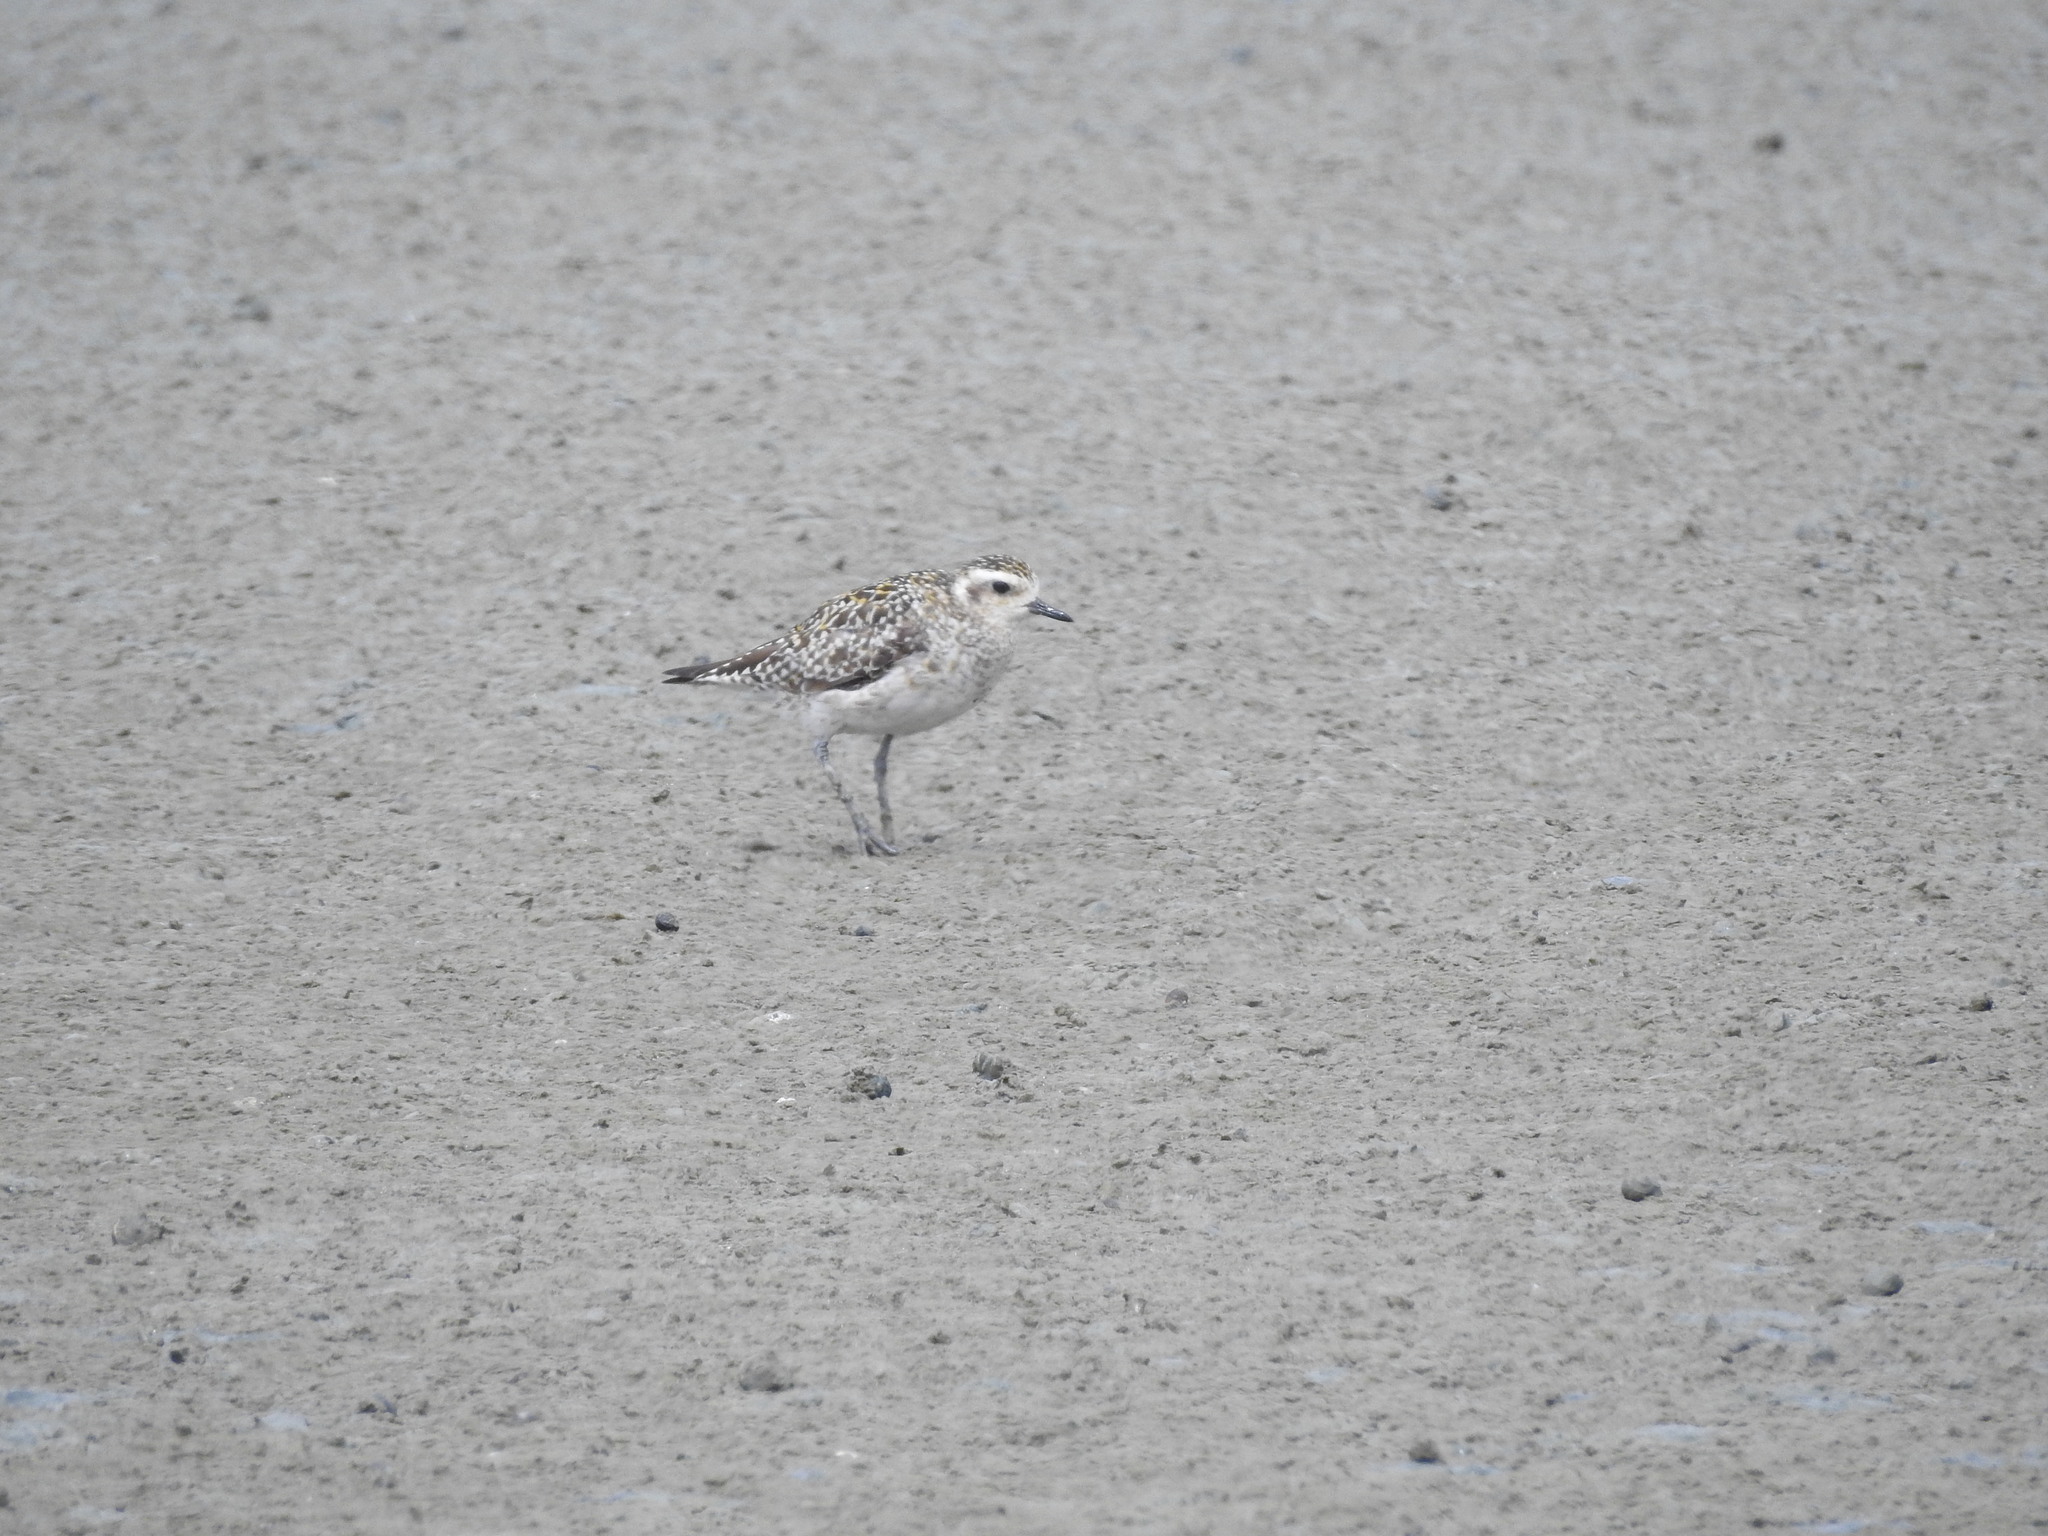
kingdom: Animalia
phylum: Chordata
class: Aves
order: Charadriiformes
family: Charadriidae
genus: Pluvialis
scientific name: Pluvialis fulva
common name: Pacific golden plover
